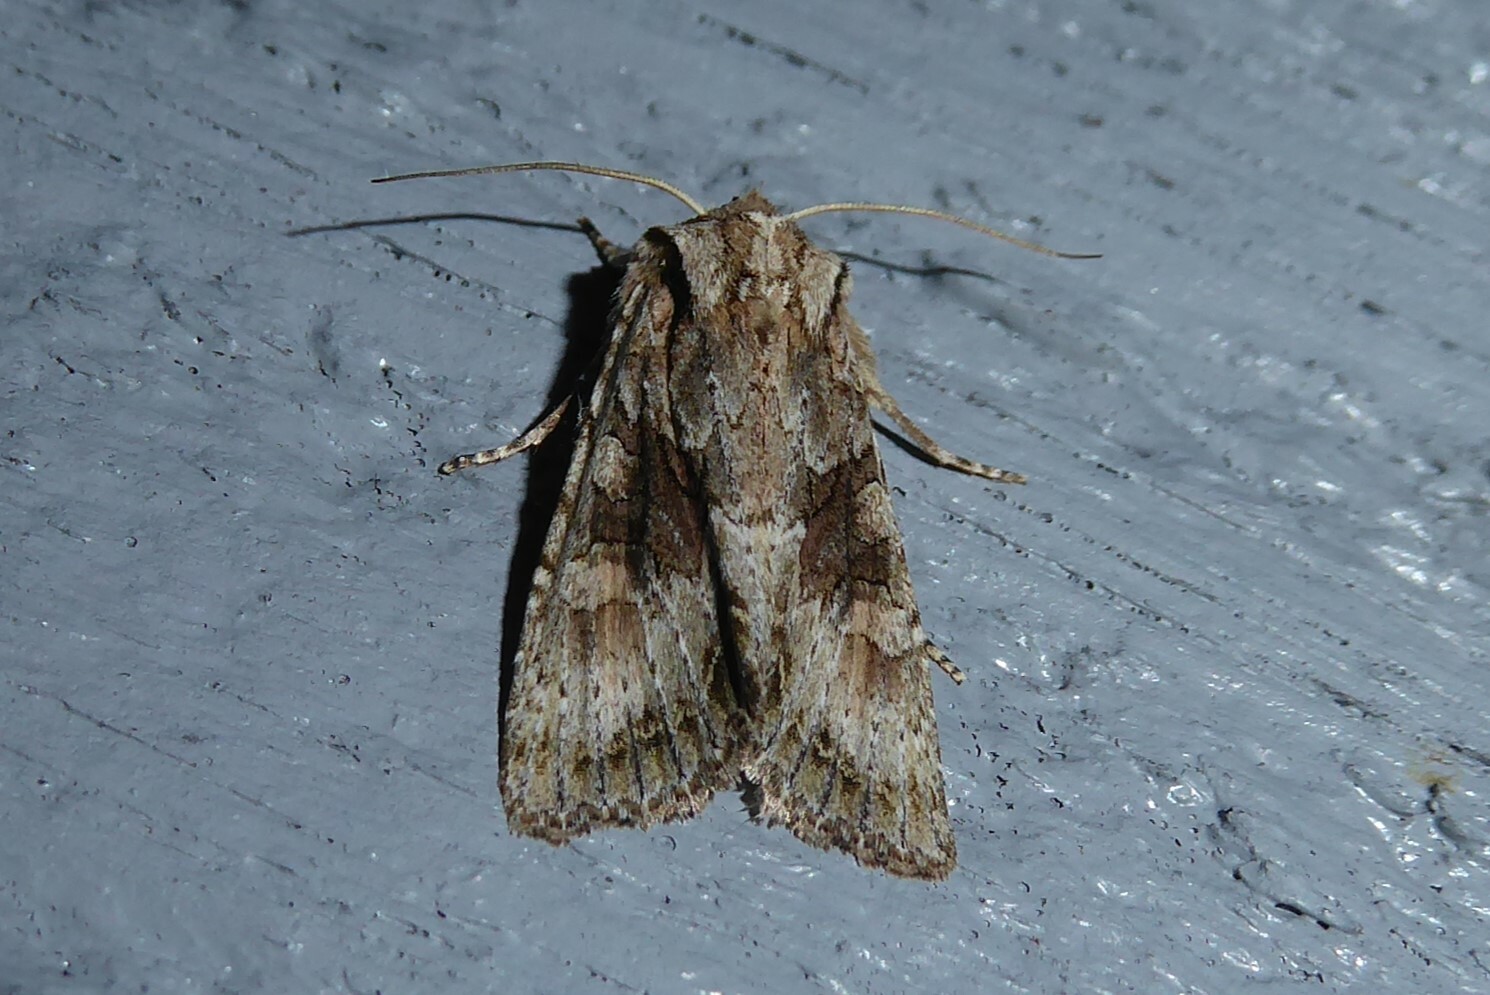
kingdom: Animalia
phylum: Arthropoda
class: Insecta
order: Lepidoptera
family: Noctuidae
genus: Ichneutica
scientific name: Ichneutica mutans
